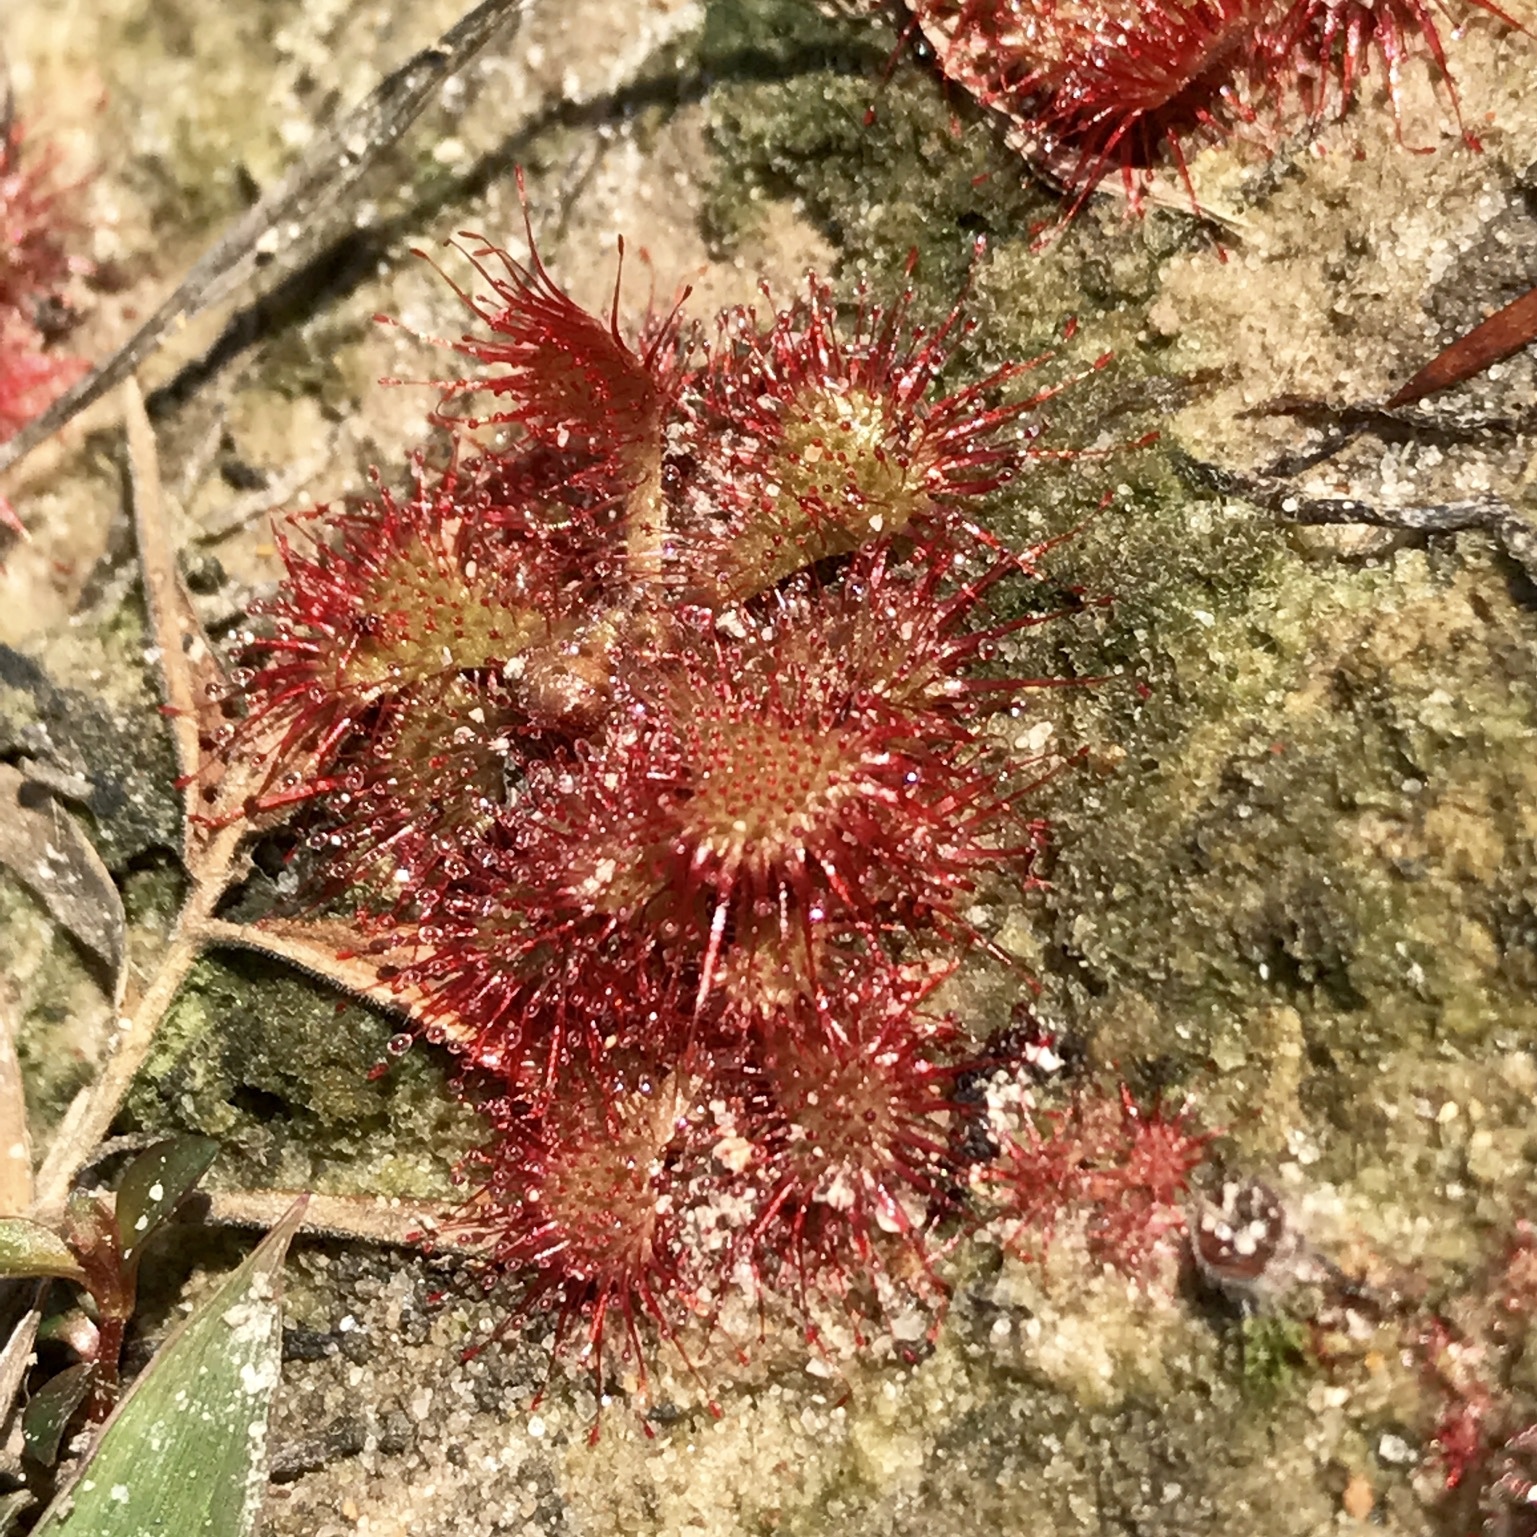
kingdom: Plantae
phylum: Tracheophyta
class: Magnoliopsida
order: Caryophyllales
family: Droseraceae
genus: Drosera
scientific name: Drosera brevifolia
